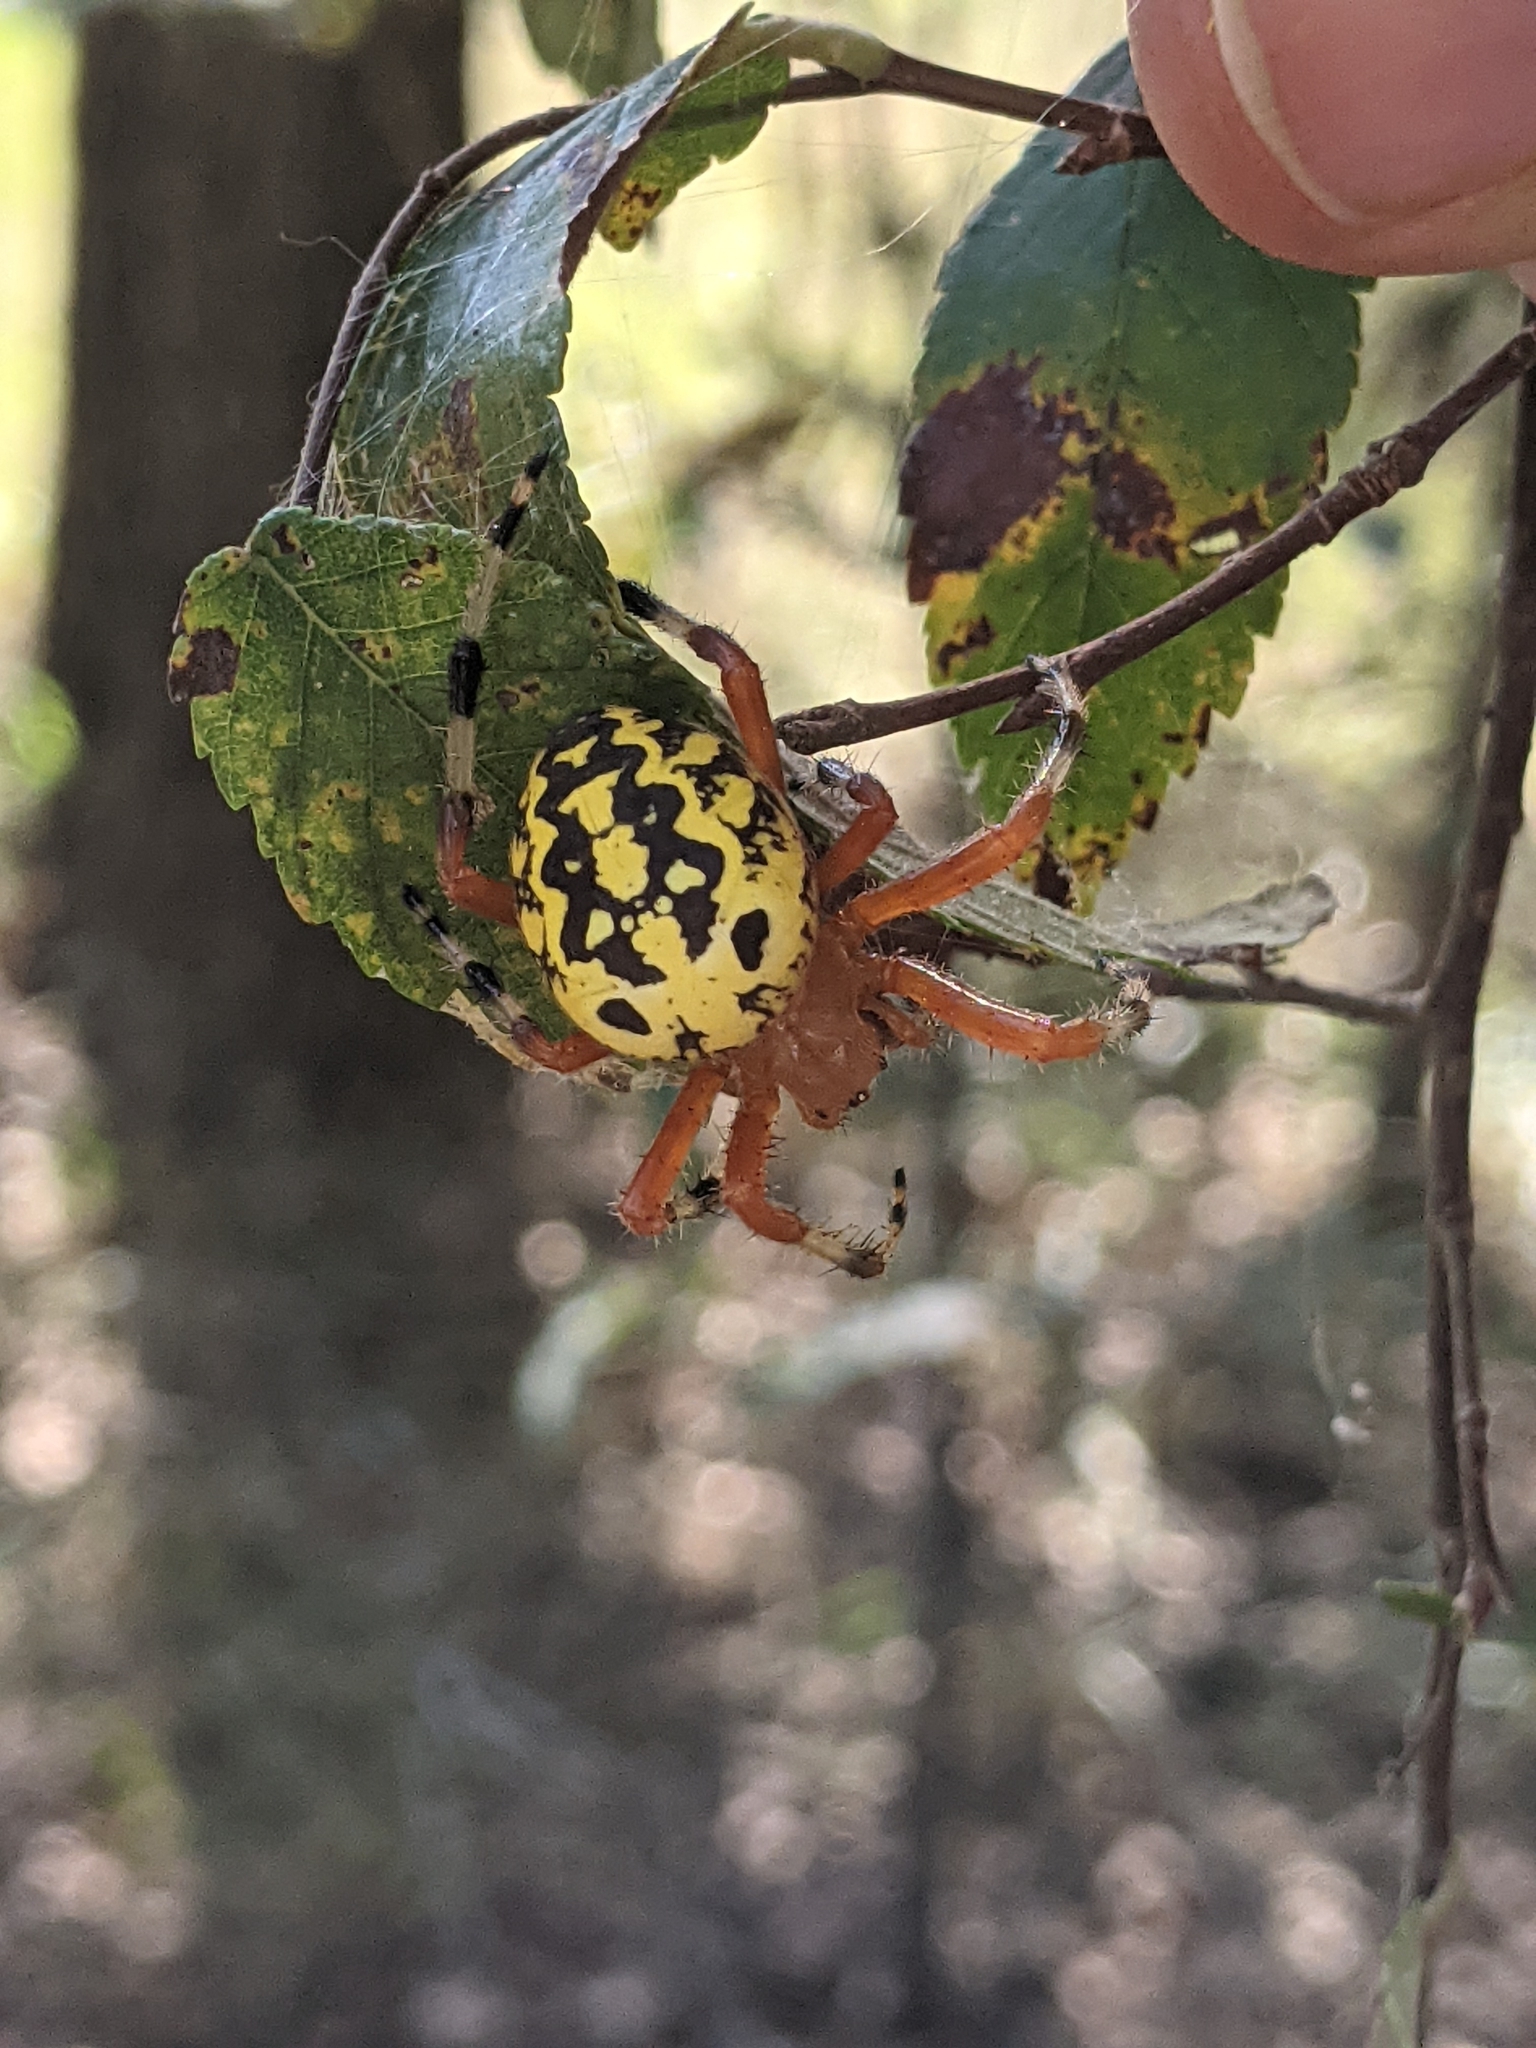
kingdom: Animalia
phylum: Arthropoda
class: Arachnida
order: Araneae
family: Araneidae
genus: Araneus
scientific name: Araneus marmoreus
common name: Marbled orbweaver
